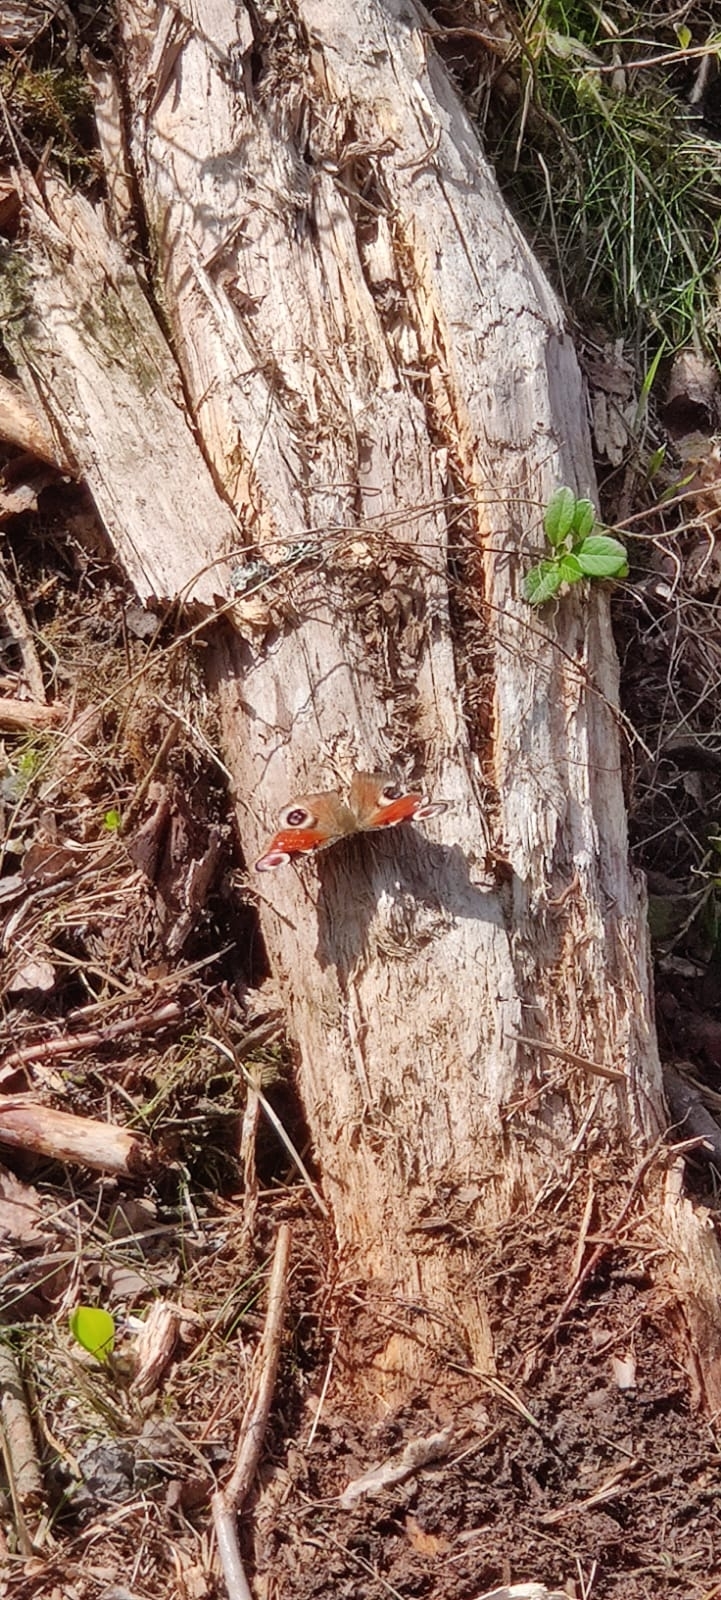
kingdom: Animalia
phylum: Arthropoda
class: Insecta
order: Lepidoptera
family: Nymphalidae
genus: Aglais
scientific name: Aglais io
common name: Peacock
